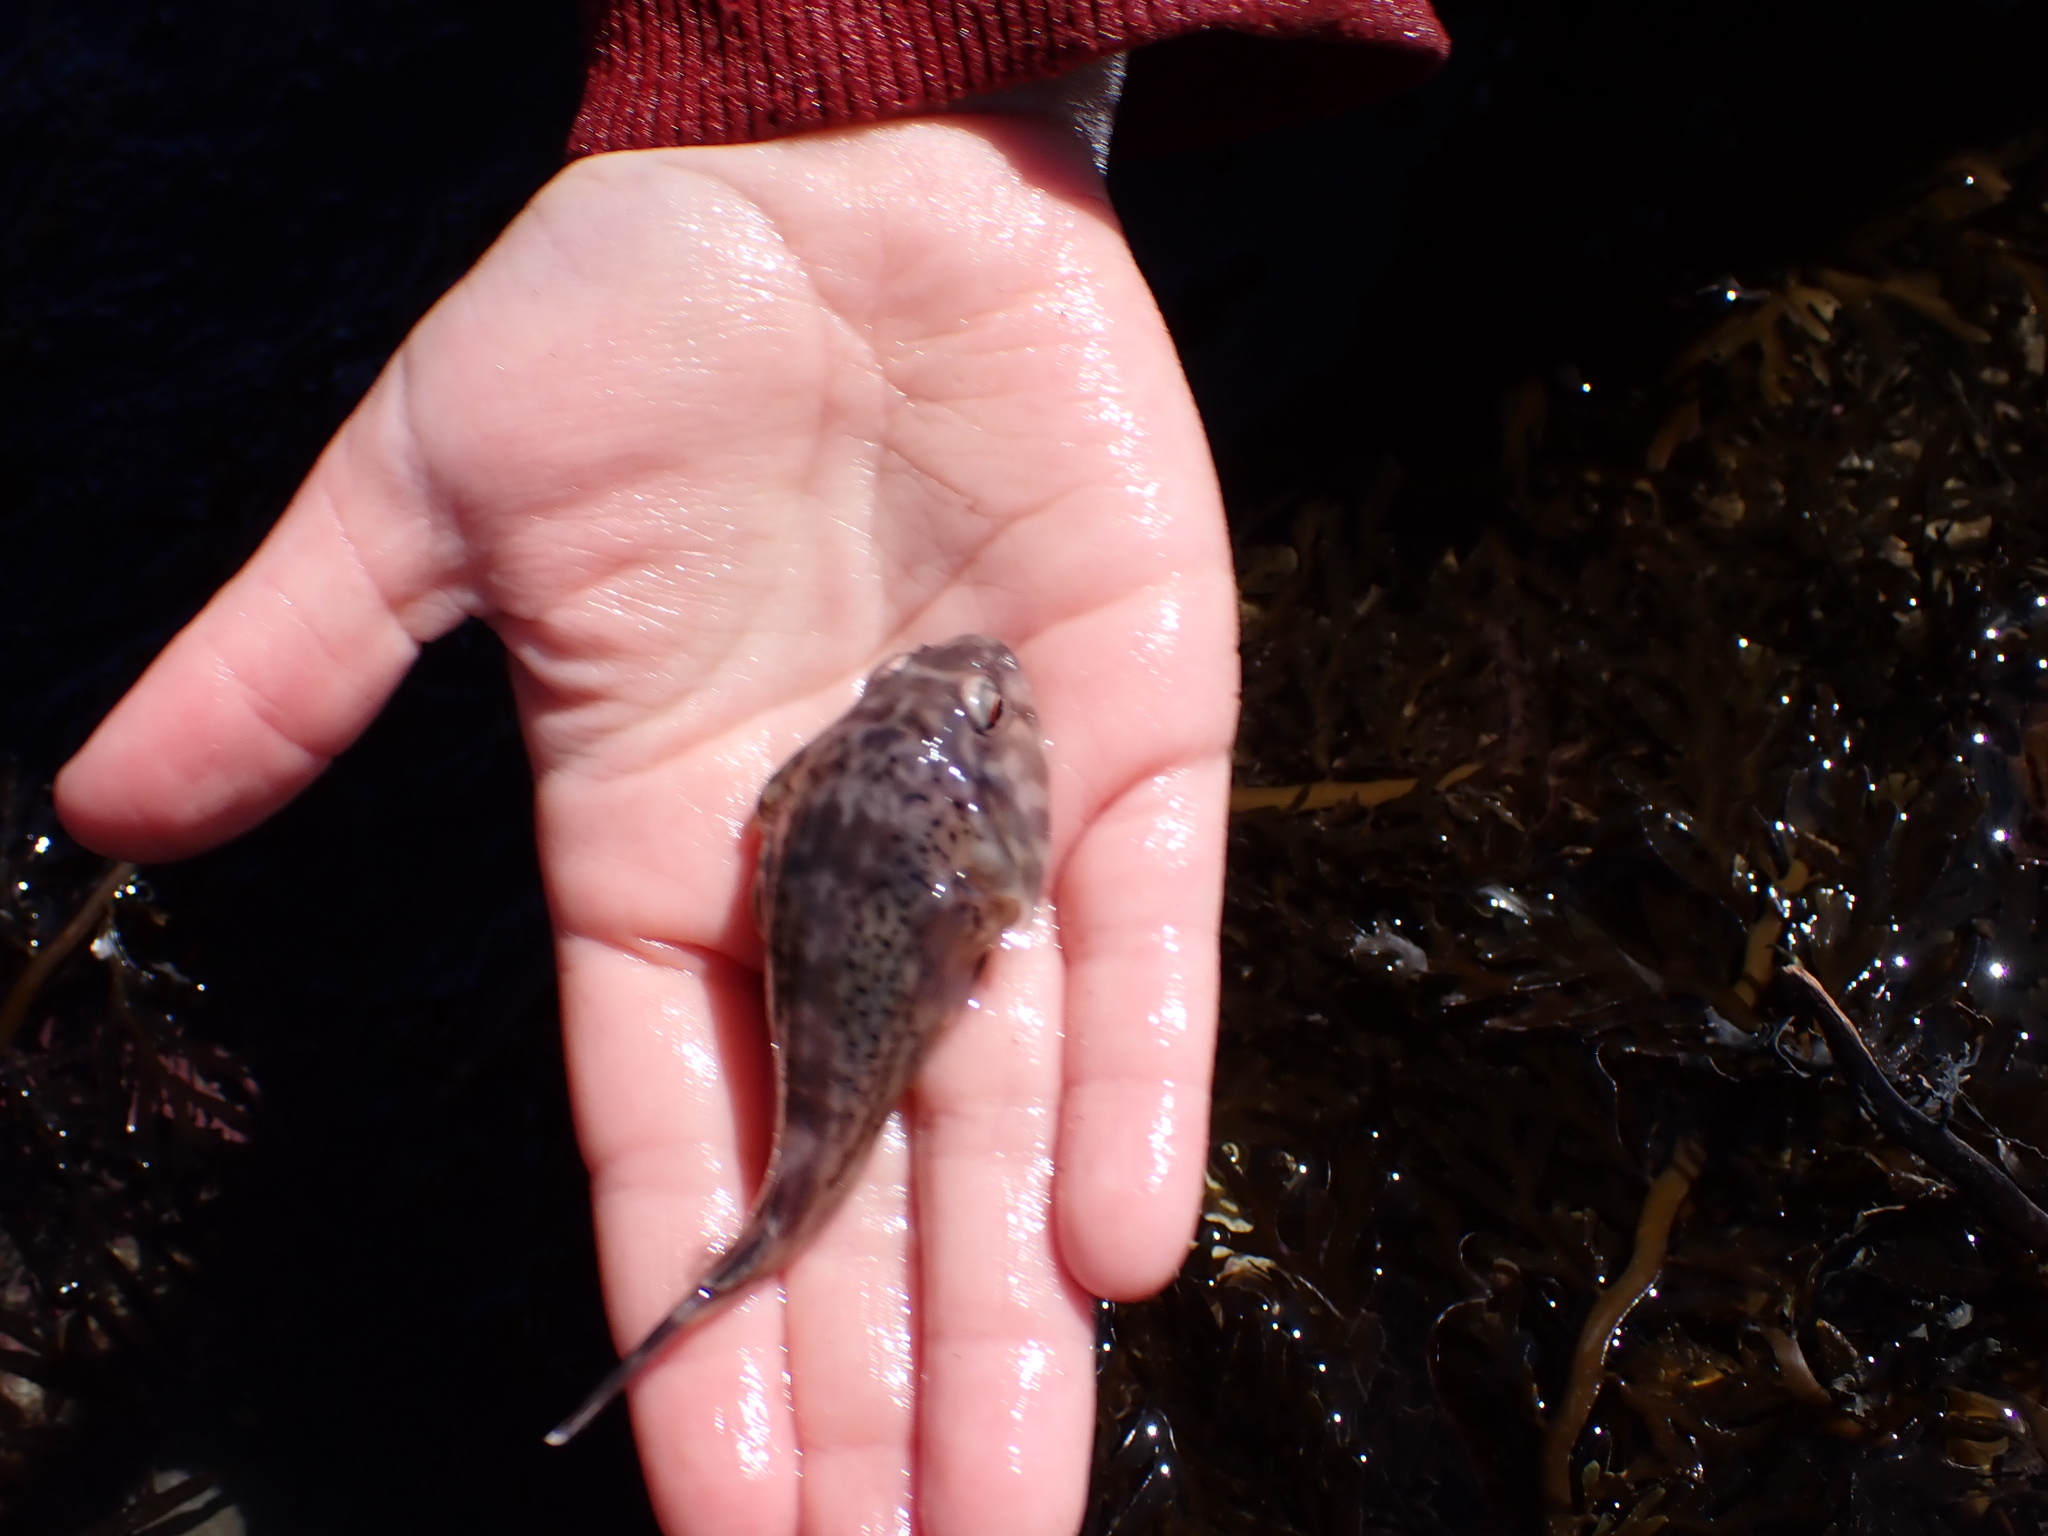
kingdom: Animalia
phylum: Chordata
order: Gobiesociformes
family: Gobiesocidae
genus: Diplocrepis
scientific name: Diplocrepis puniceus
